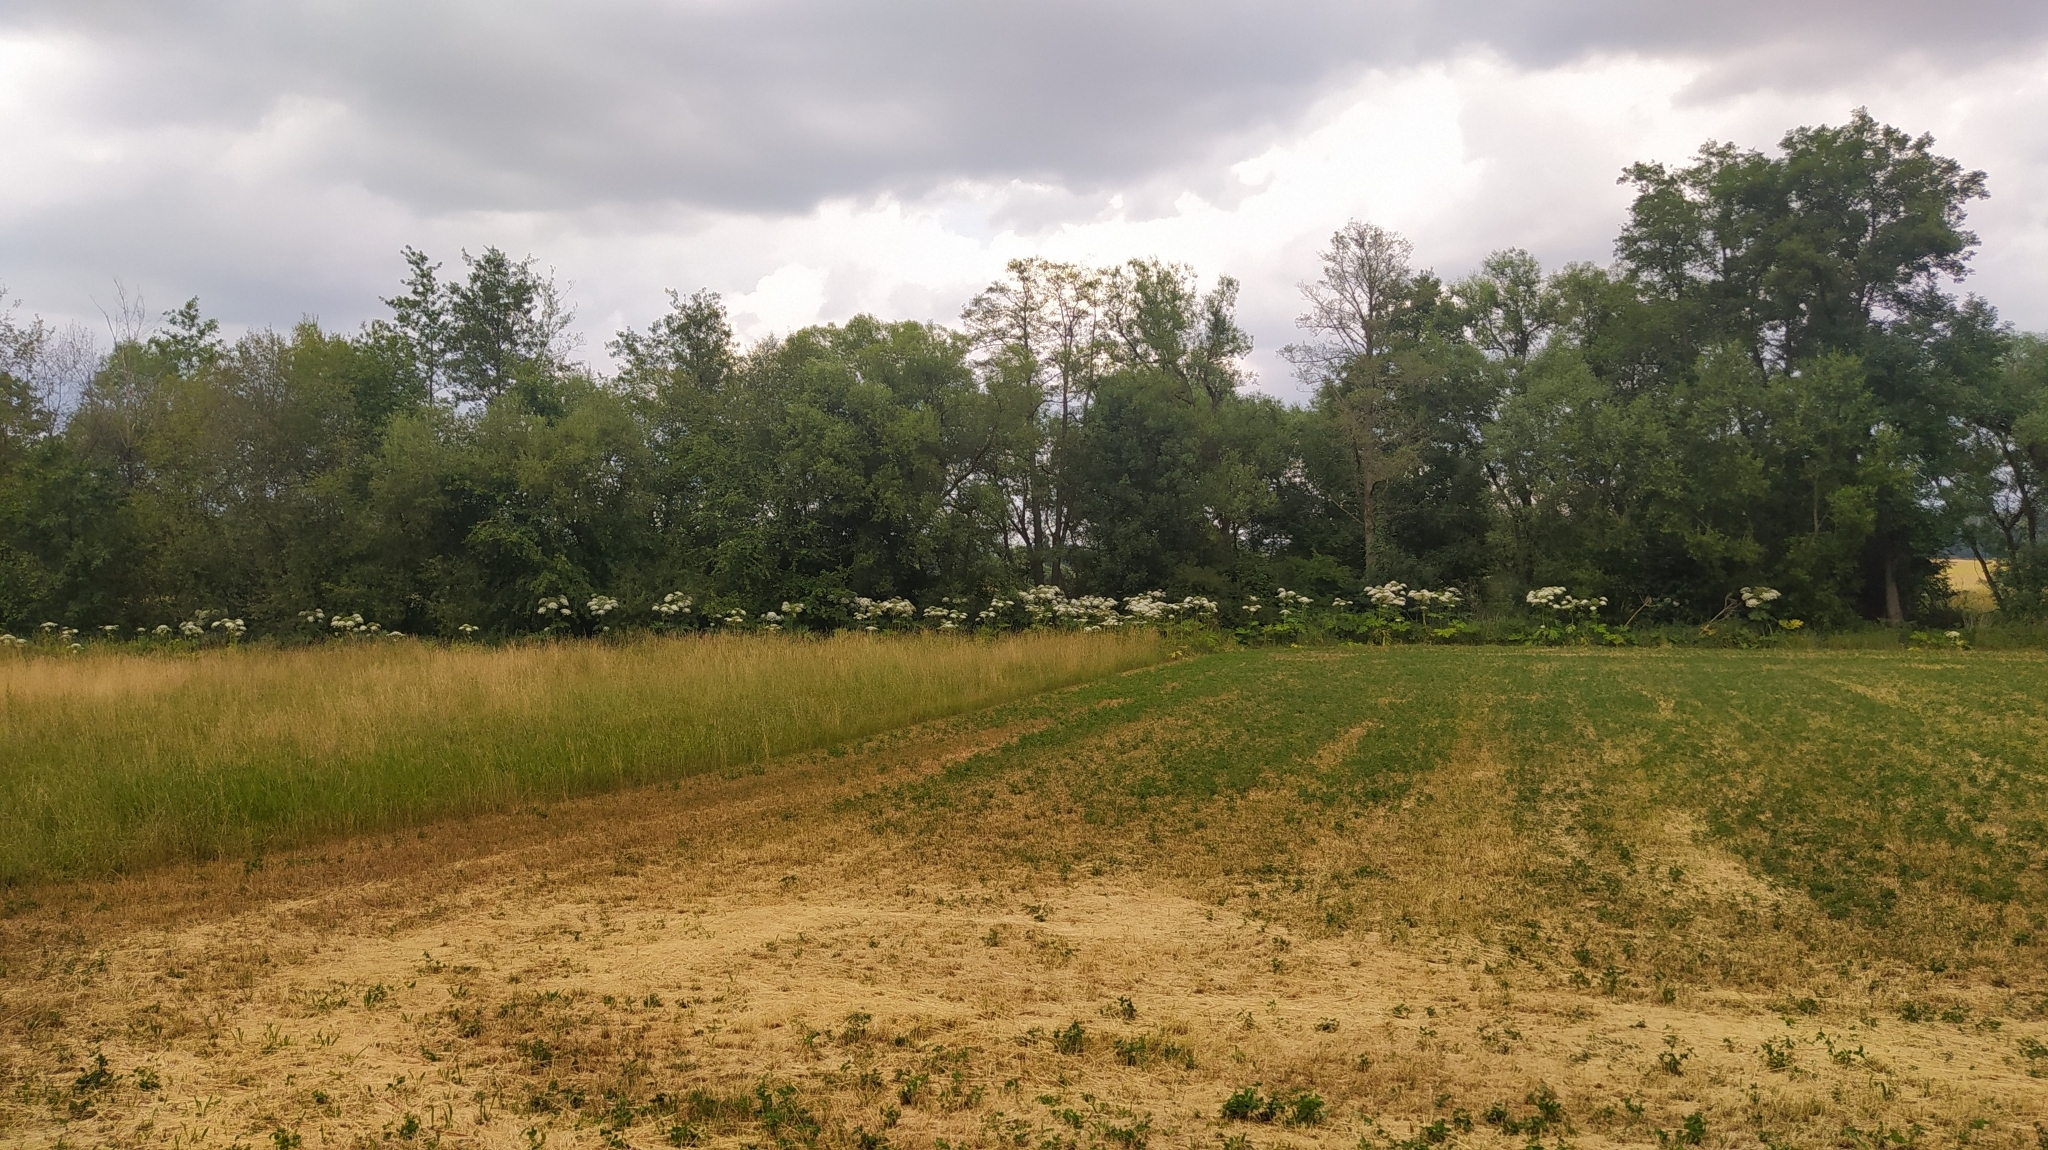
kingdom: Plantae
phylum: Tracheophyta
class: Magnoliopsida
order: Apiales
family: Apiaceae
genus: Heracleum
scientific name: Heracleum mantegazzianum
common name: Giant hogweed
